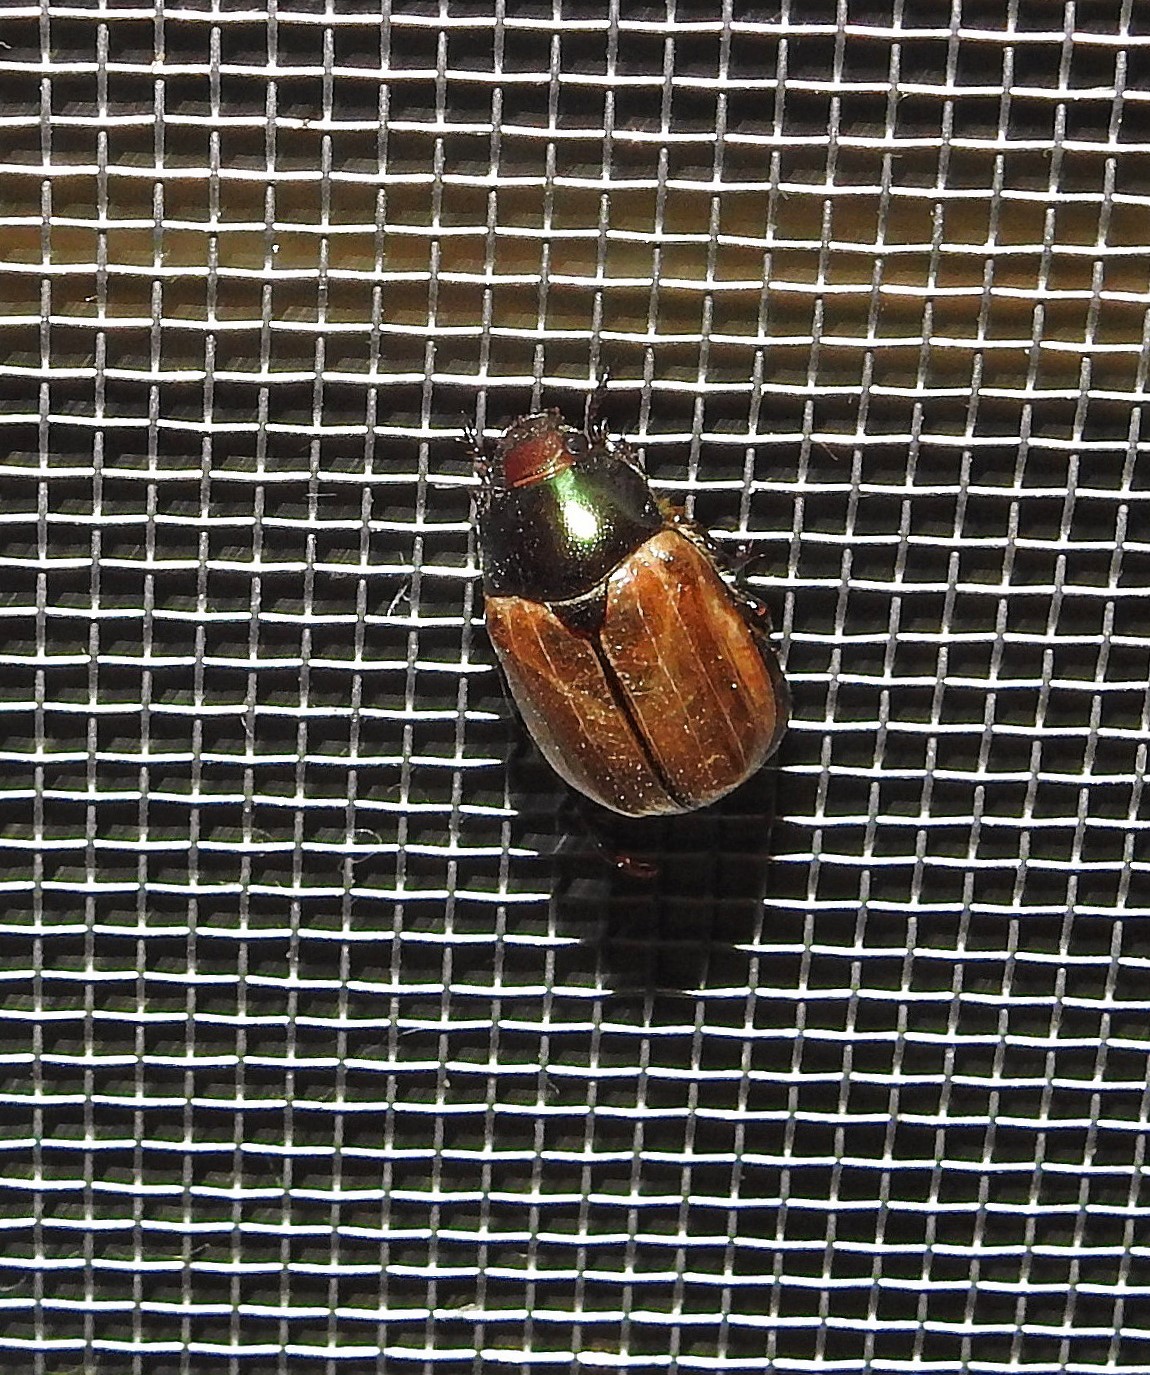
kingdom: Animalia
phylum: Arthropoda
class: Insecta
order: Coleoptera
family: Scarabaeidae
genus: Paranomala
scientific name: Paranomala testaceipennis
